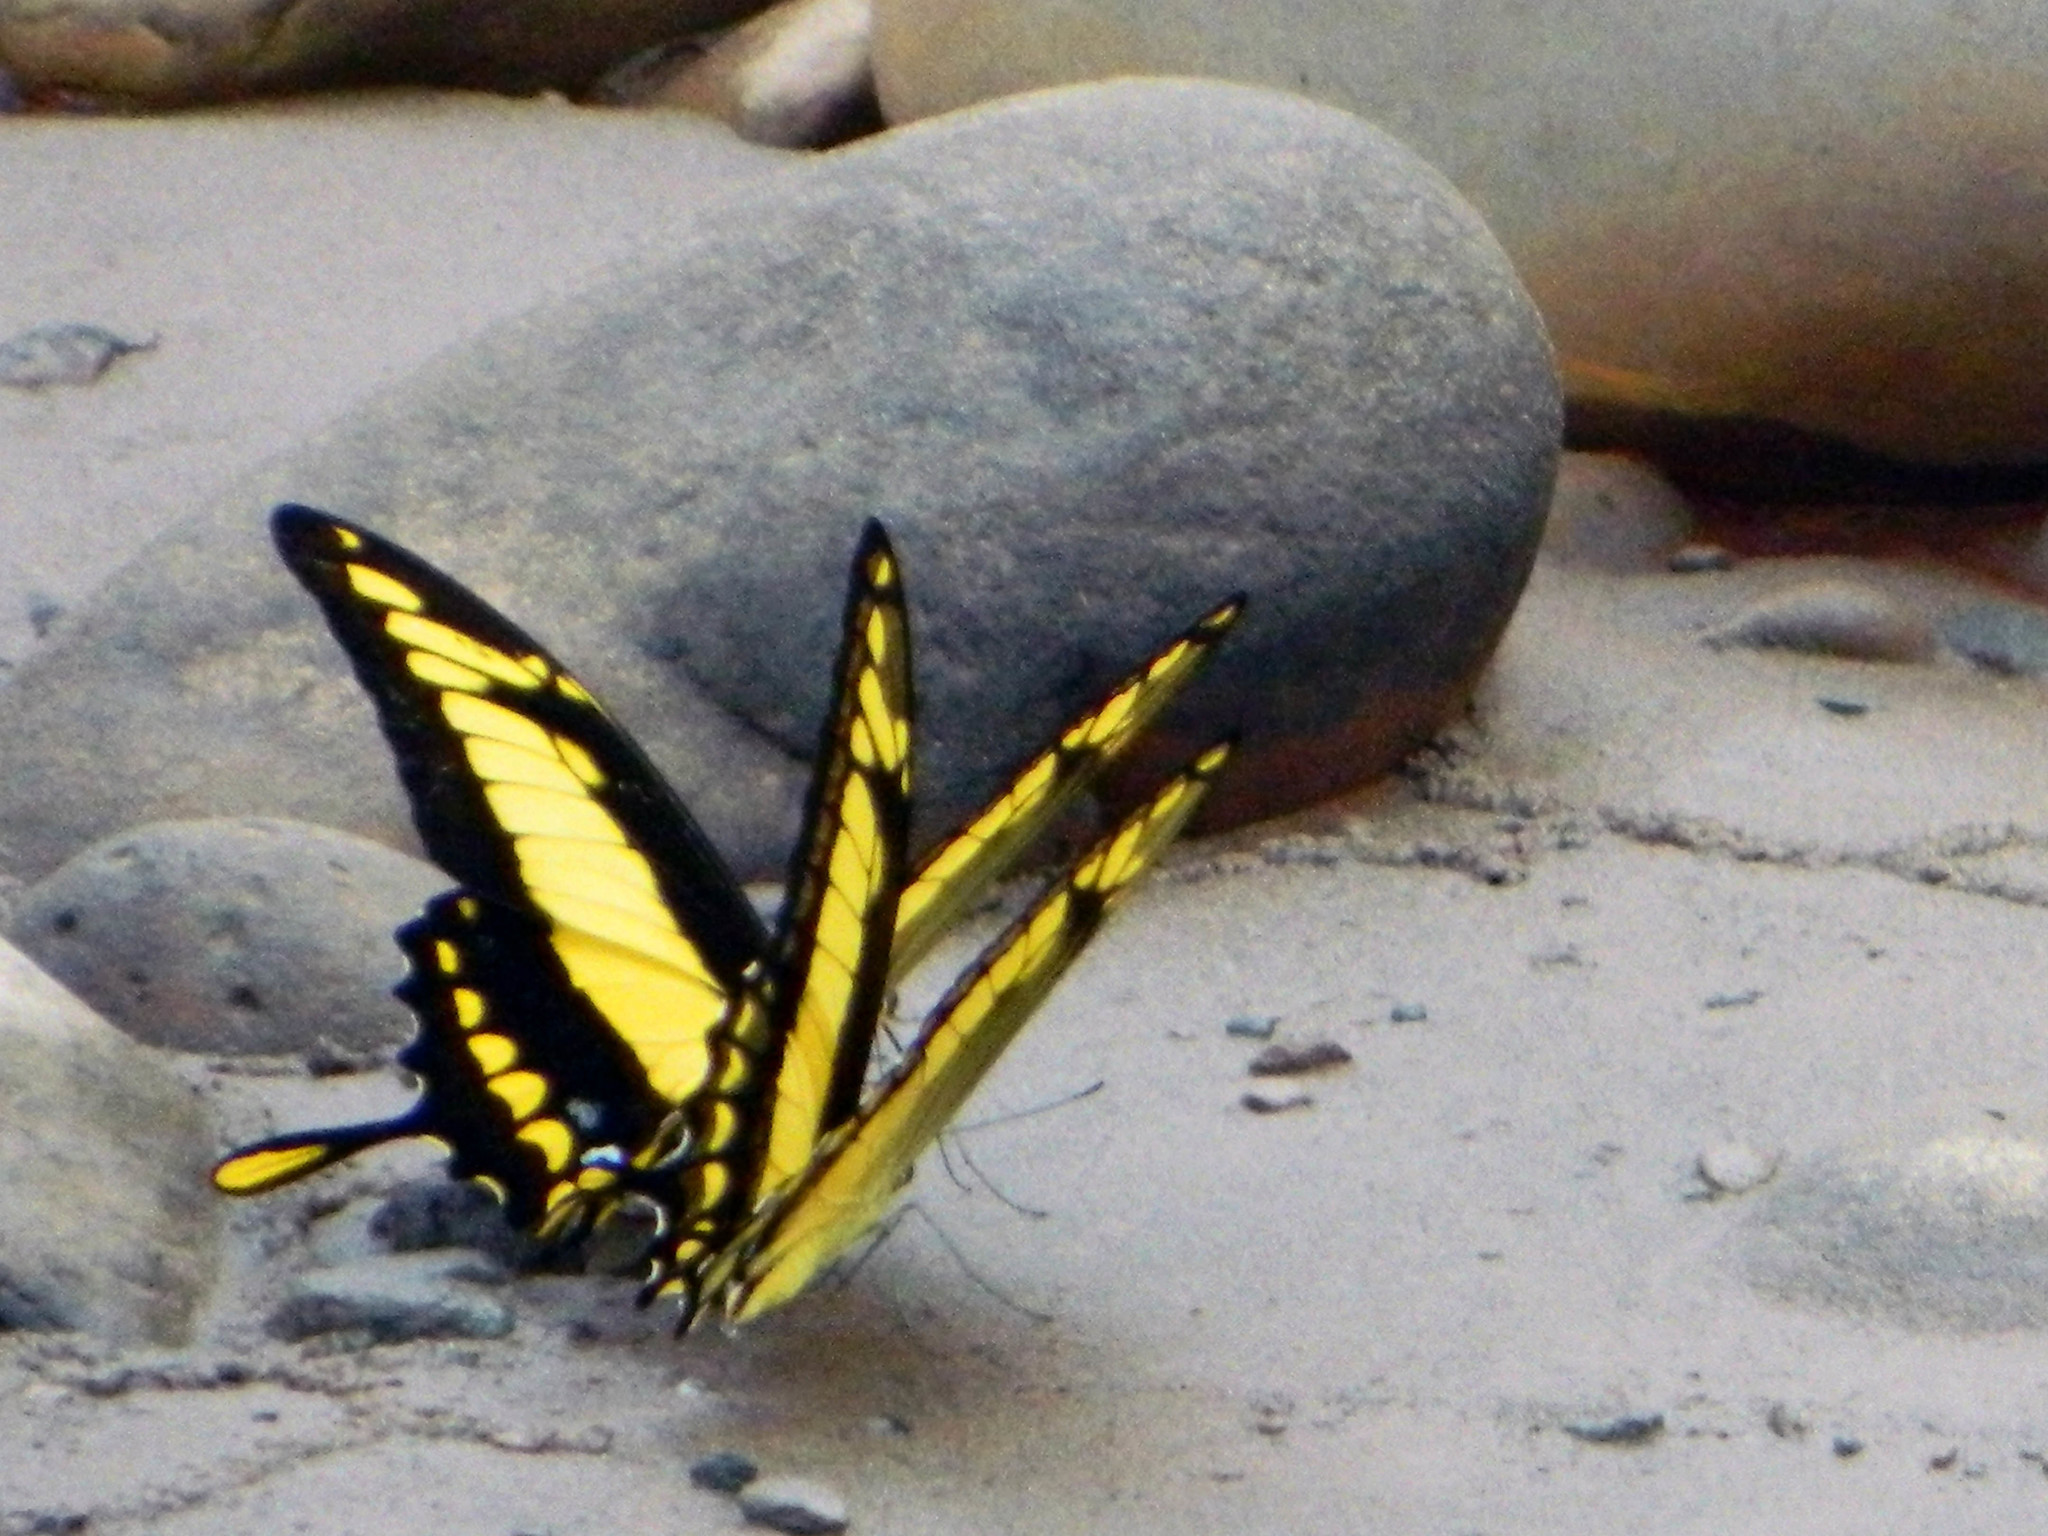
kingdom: Animalia
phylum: Arthropoda
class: Insecta
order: Lepidoptera
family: Papilionidae
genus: Papilio
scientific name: Papilio thoas
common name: King swallowtail
